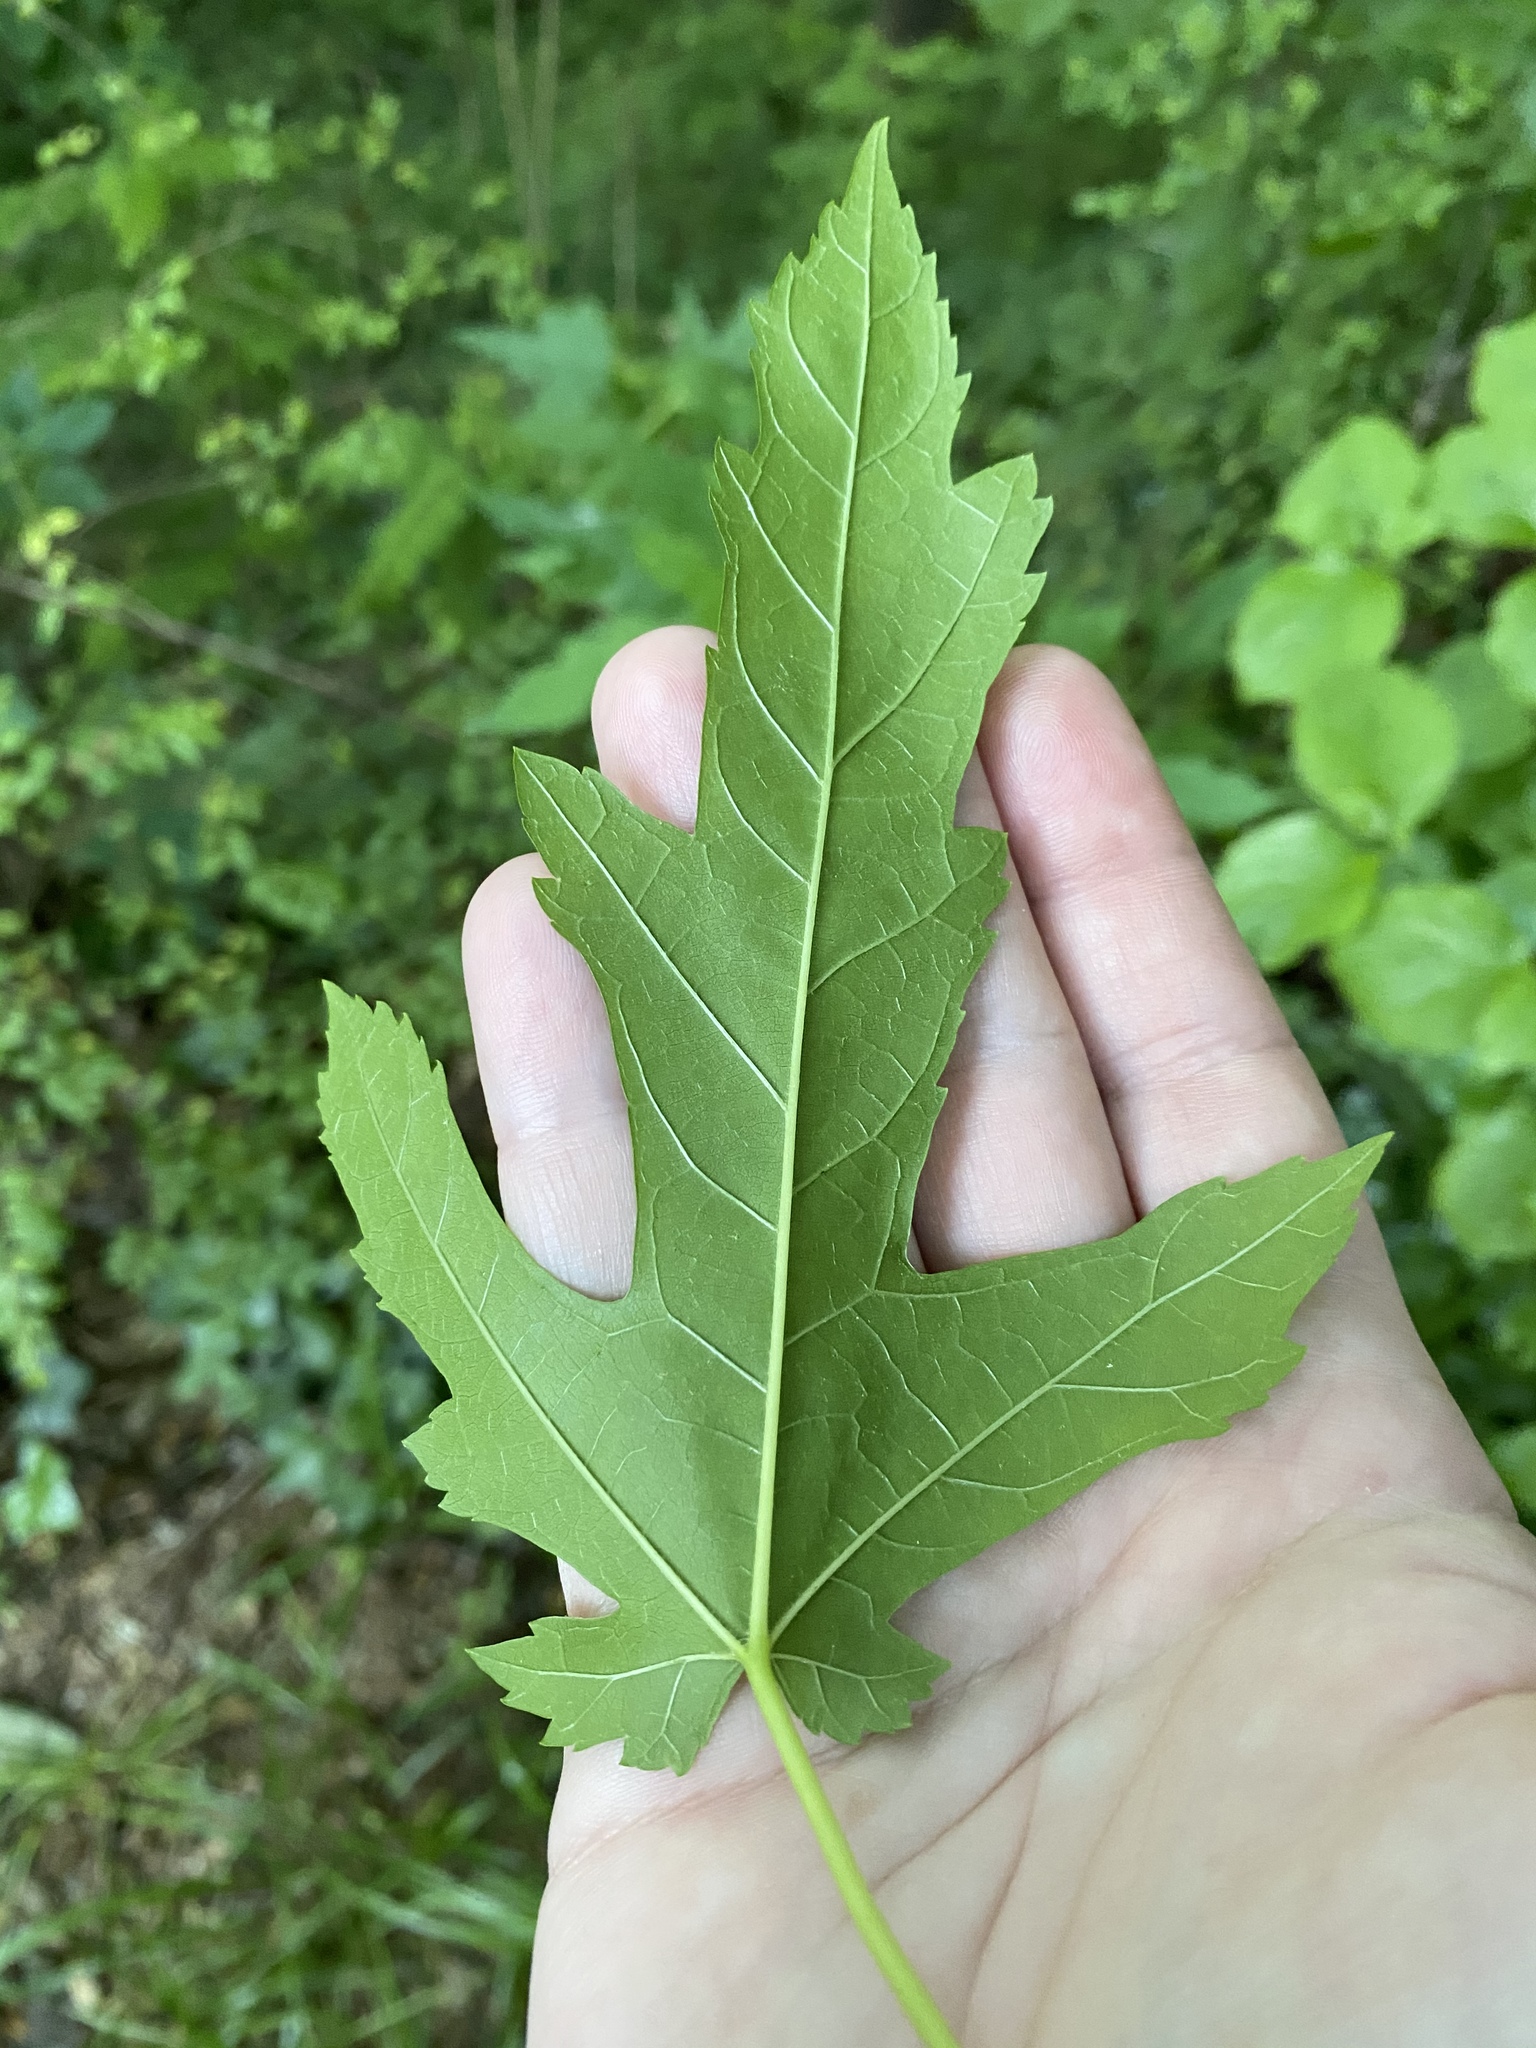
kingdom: Plantae
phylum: Tracheophyta
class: Magnoliopsida
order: Sapindales
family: Sapindaceae
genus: Acer
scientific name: Acer saccharinum
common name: Silver maple
